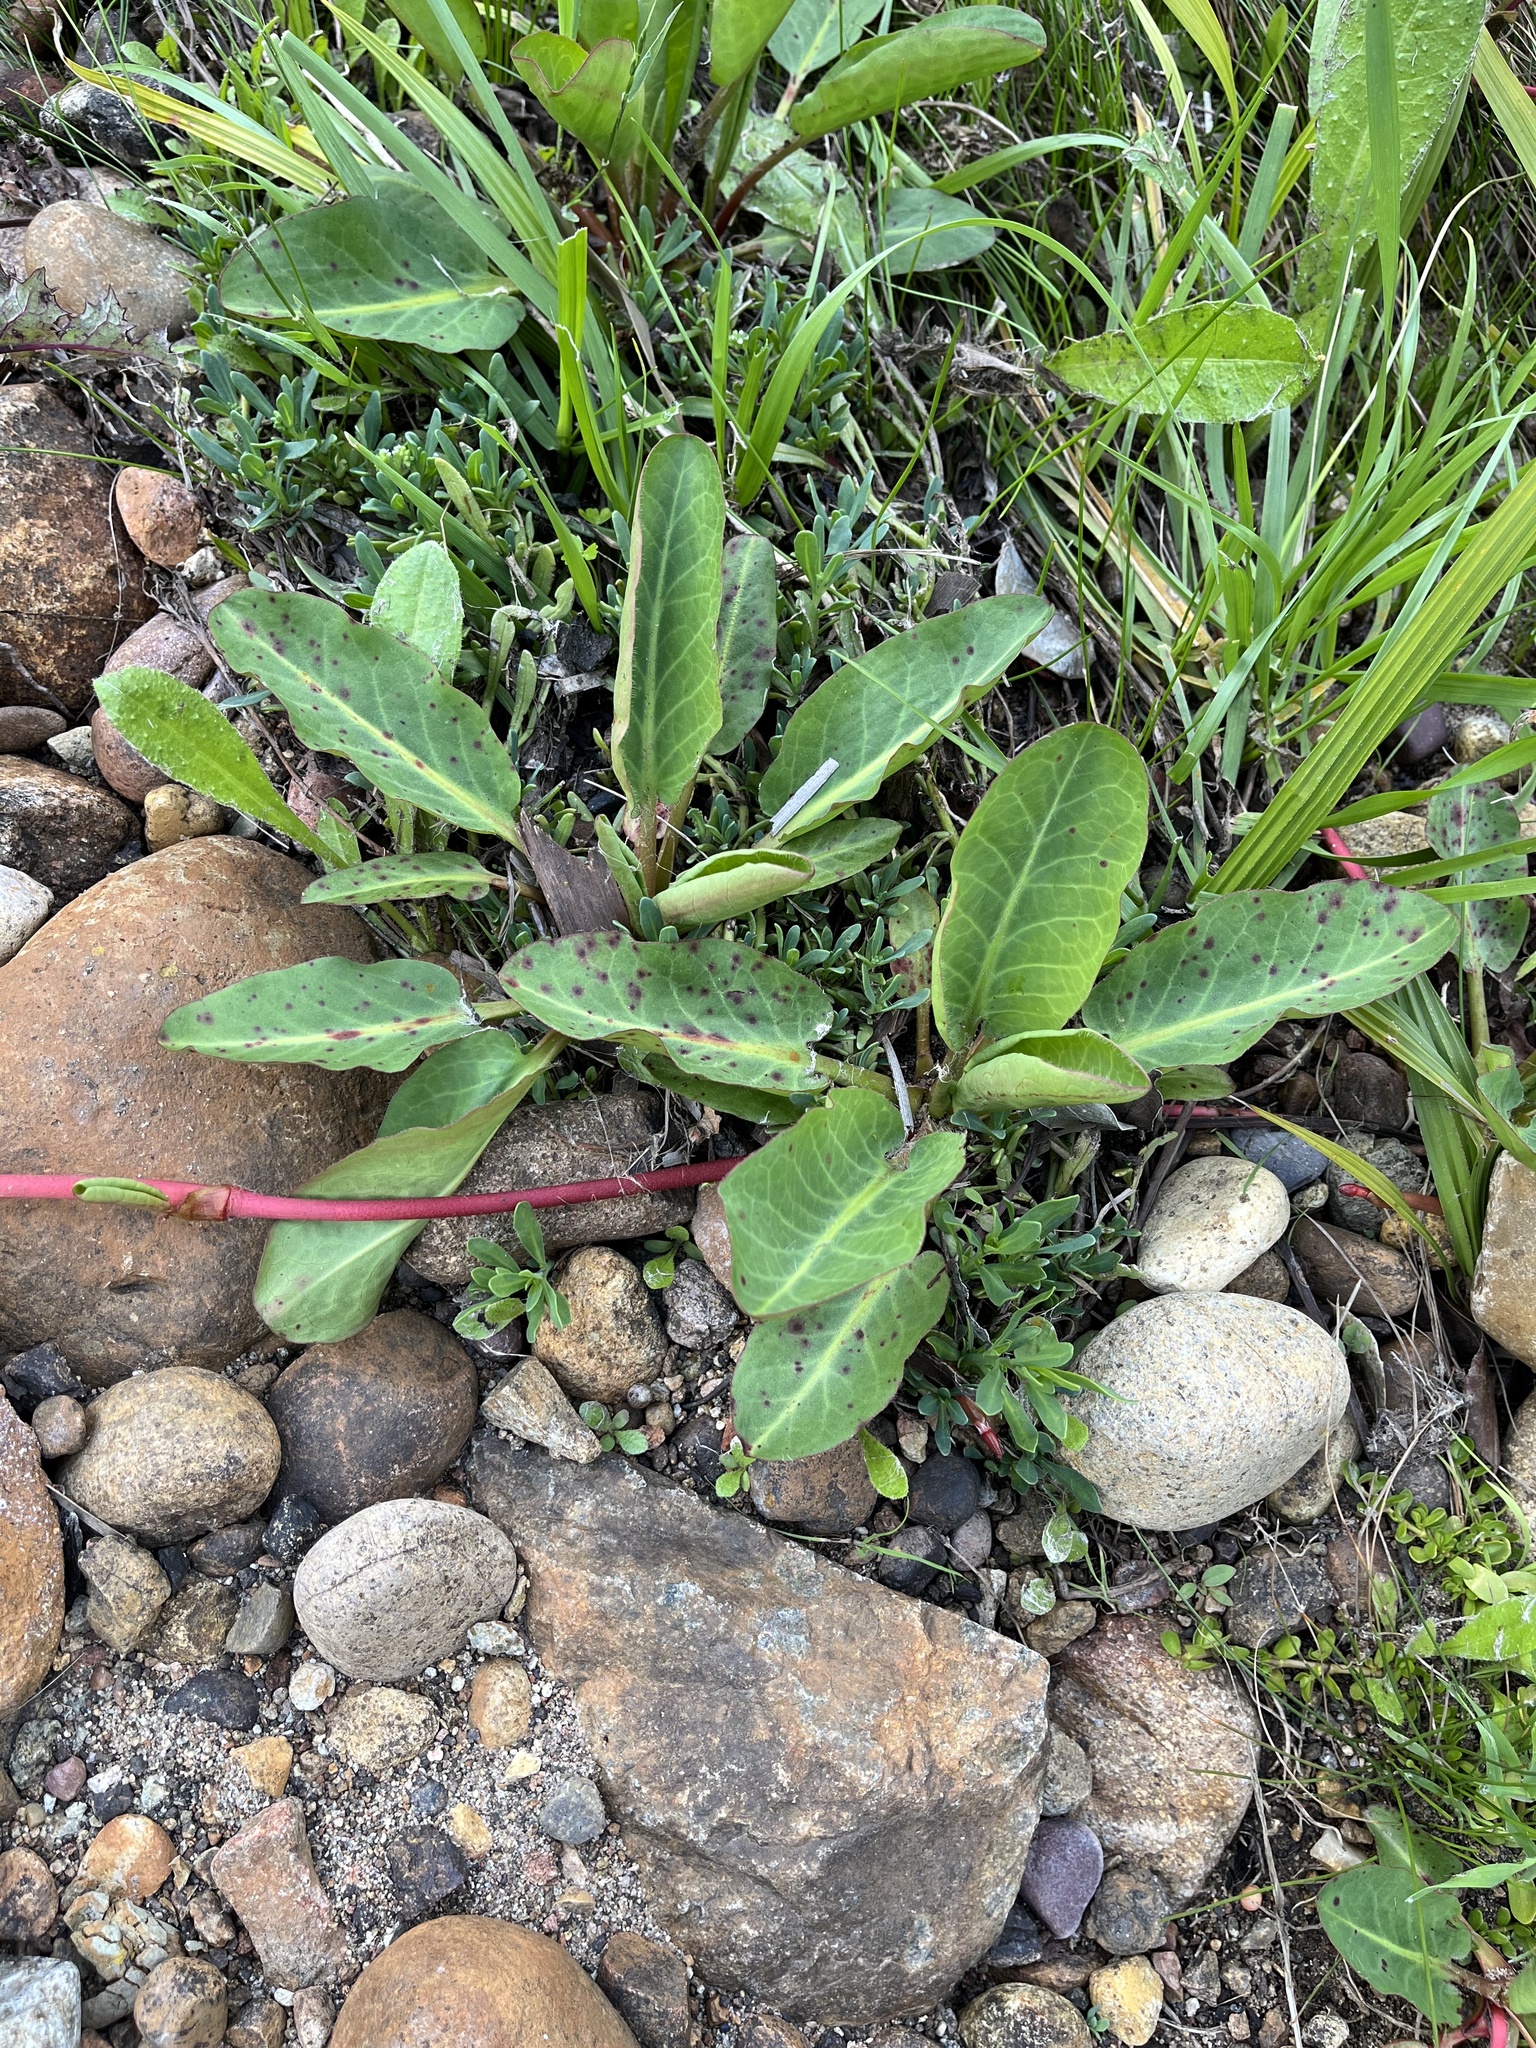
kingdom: Plantae
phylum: Tracheophyta
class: Magnoliopsida
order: Piperales
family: Saururaceae
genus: Anemopsis
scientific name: Anemopsis californica
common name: Apache-beads
